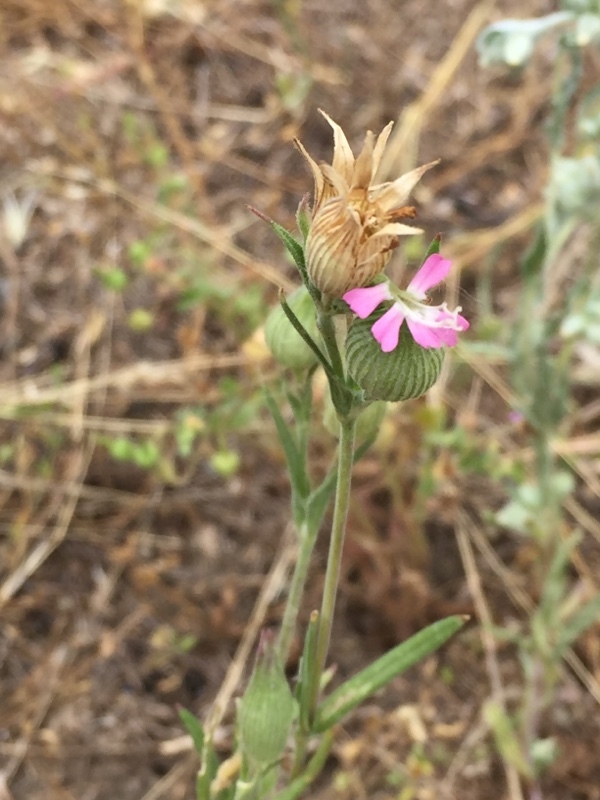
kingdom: Plantae
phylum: Tracheophyta
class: Magnoliopsida
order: Caryophyllales
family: Caryophyllaceae
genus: Silene
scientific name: Silene conica
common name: Sand catchfly
